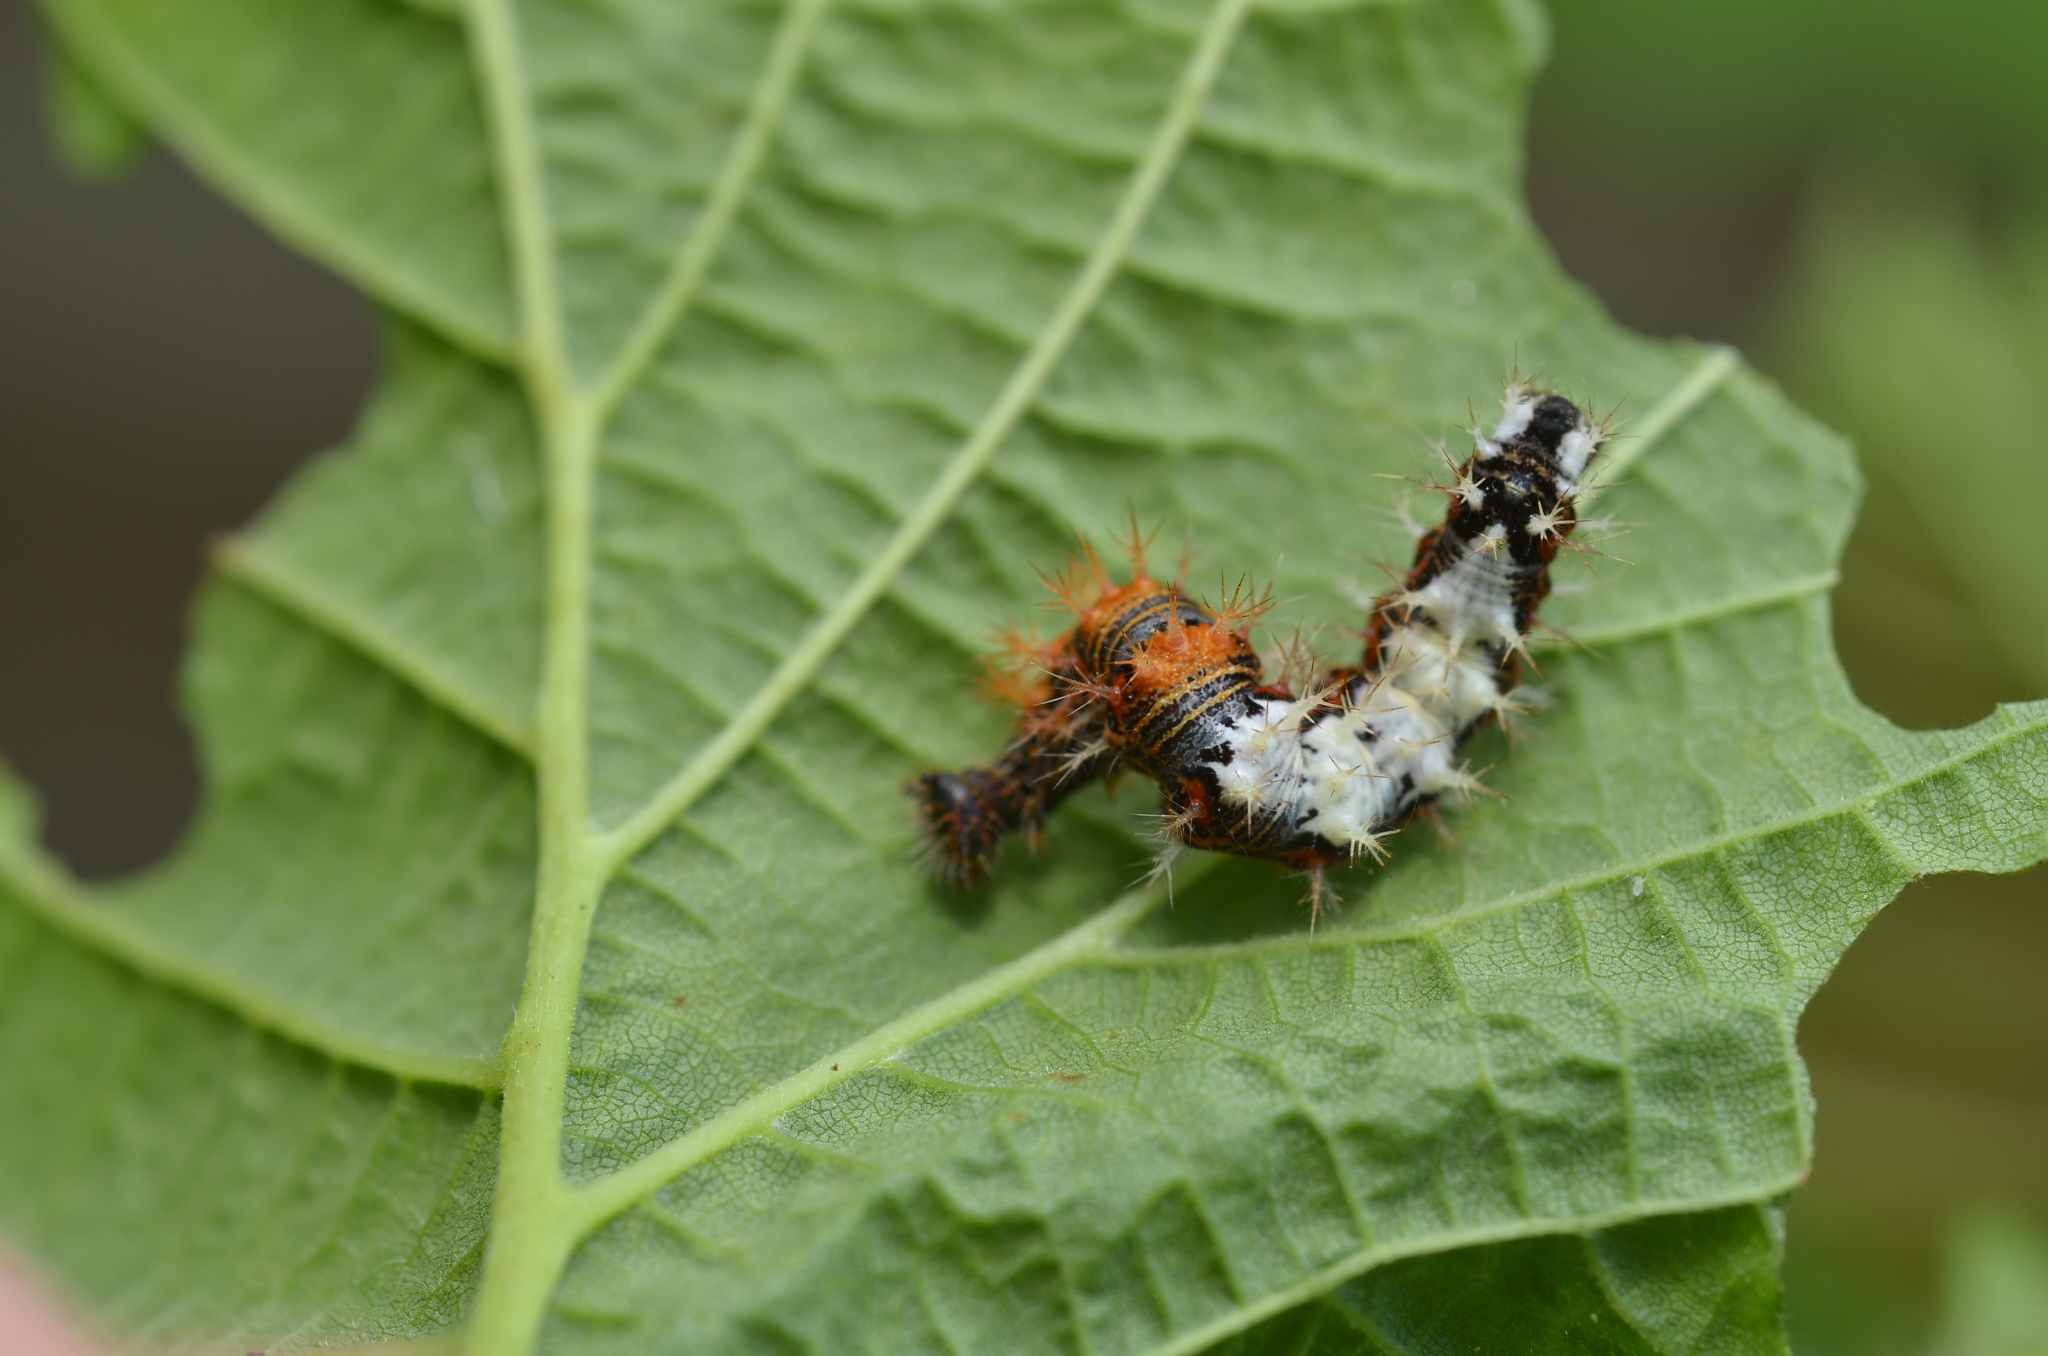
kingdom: Animalia
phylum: Arthropoda
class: Insecta
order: Lepidoptera
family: Nymphalidae
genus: Polygonia
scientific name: Polygonia c-album
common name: Comma
